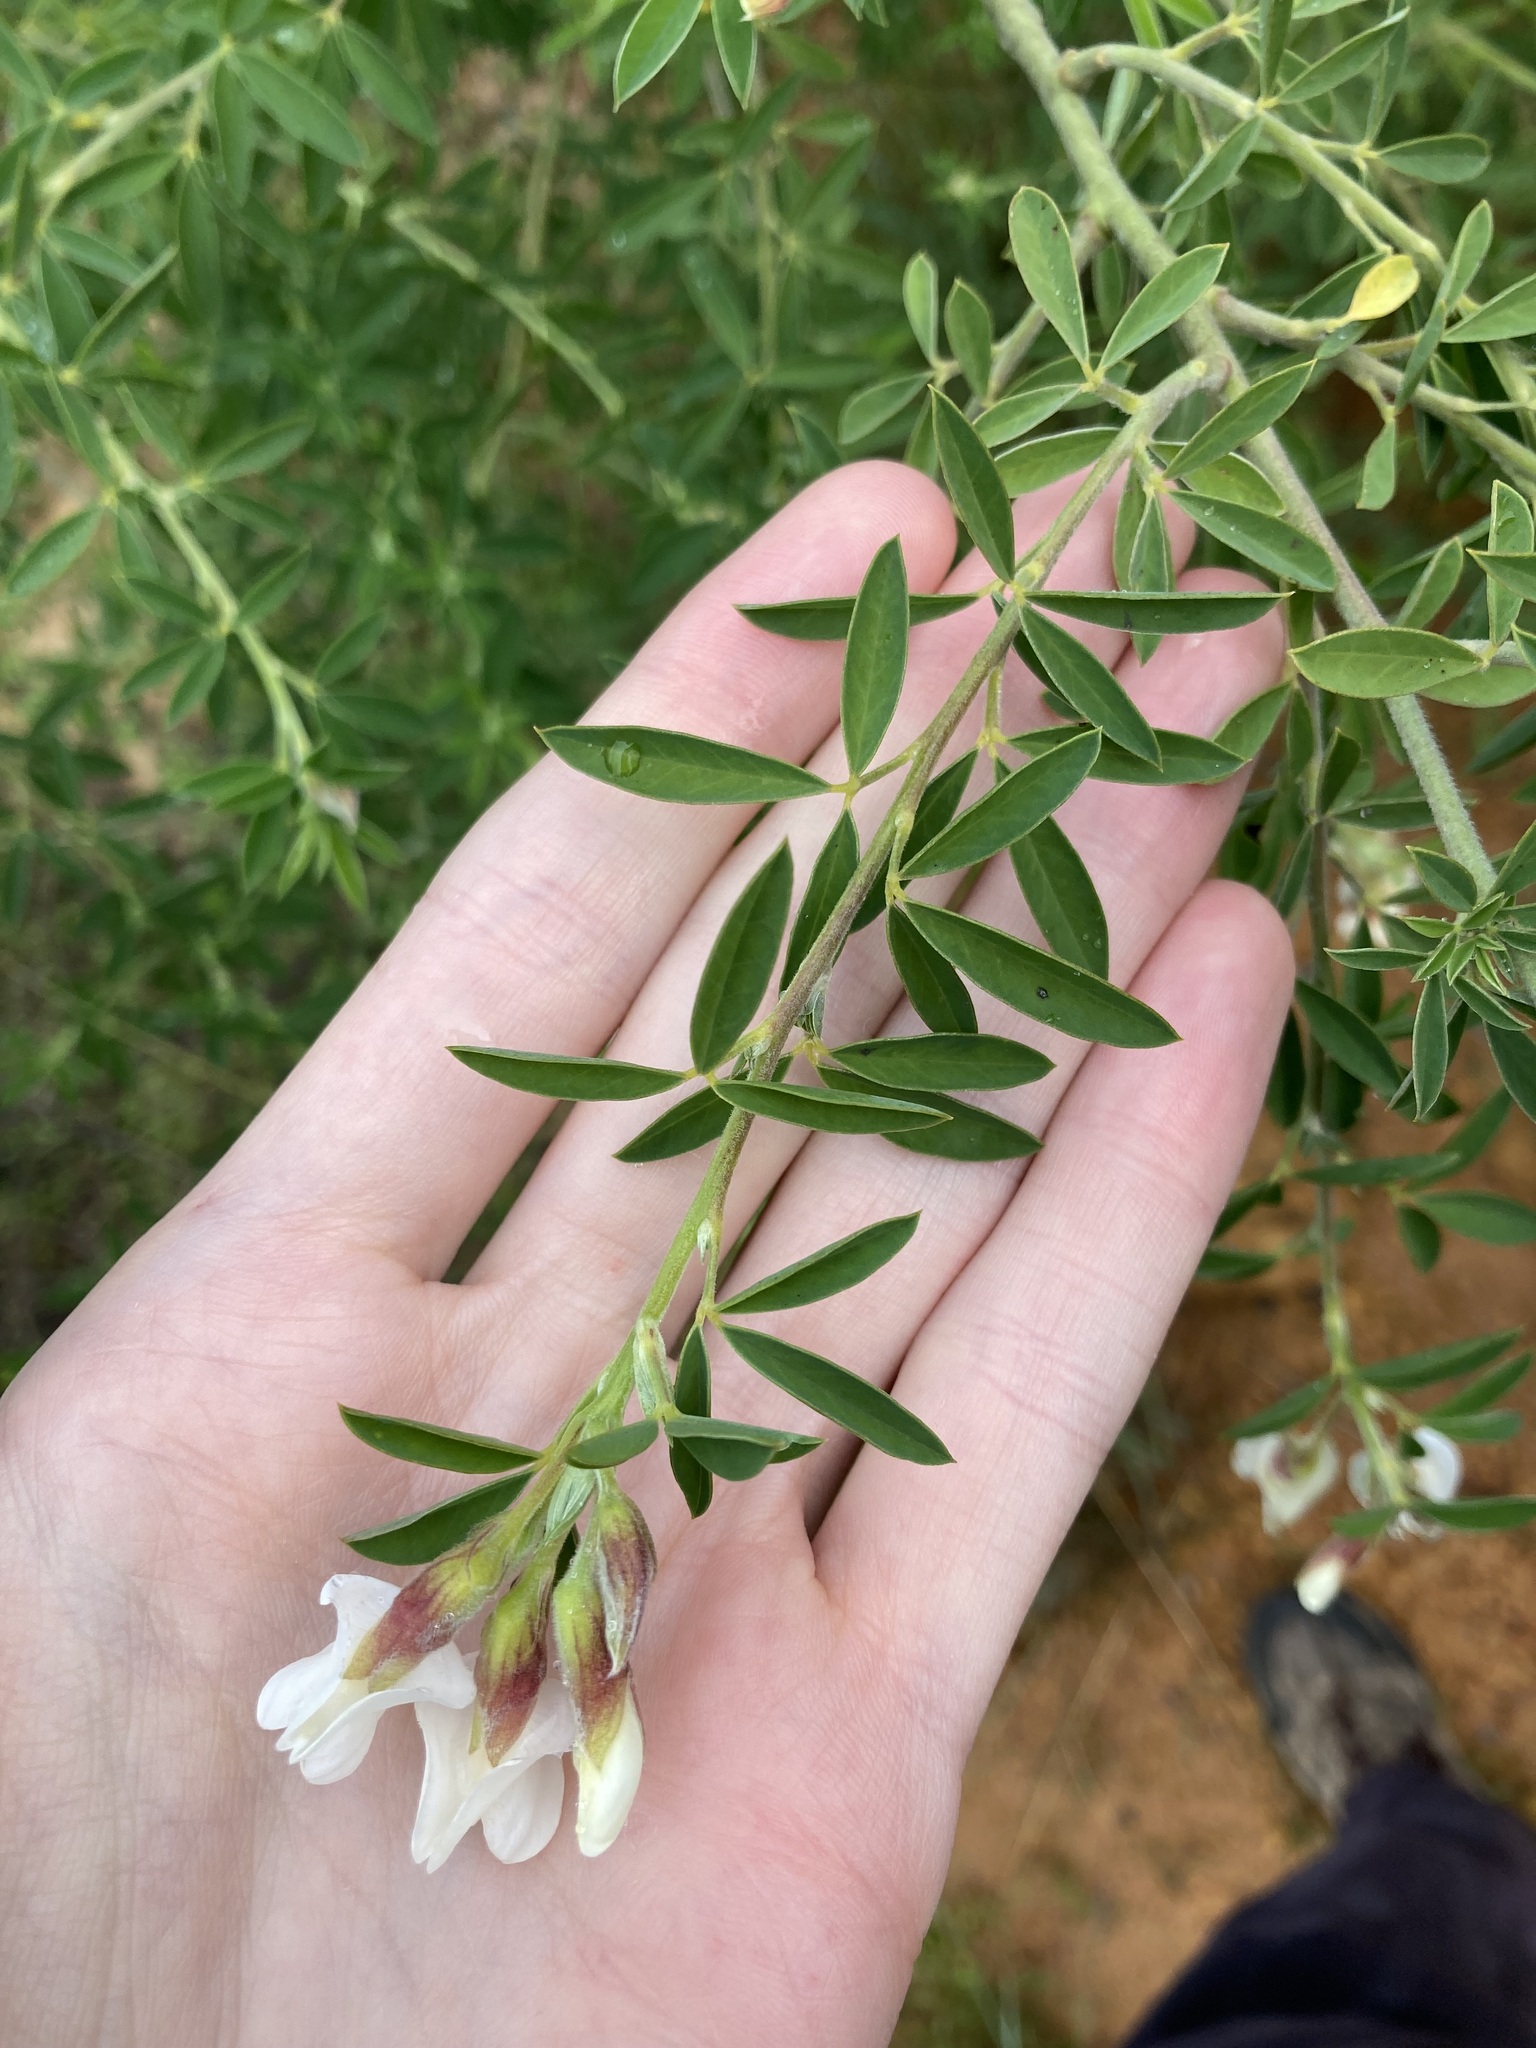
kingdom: Plantae
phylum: Tracheophyta
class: Magnoliopsida
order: Fabales
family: Fabaceae
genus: Chamaecytisus
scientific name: Chamaecytisus prolifer
